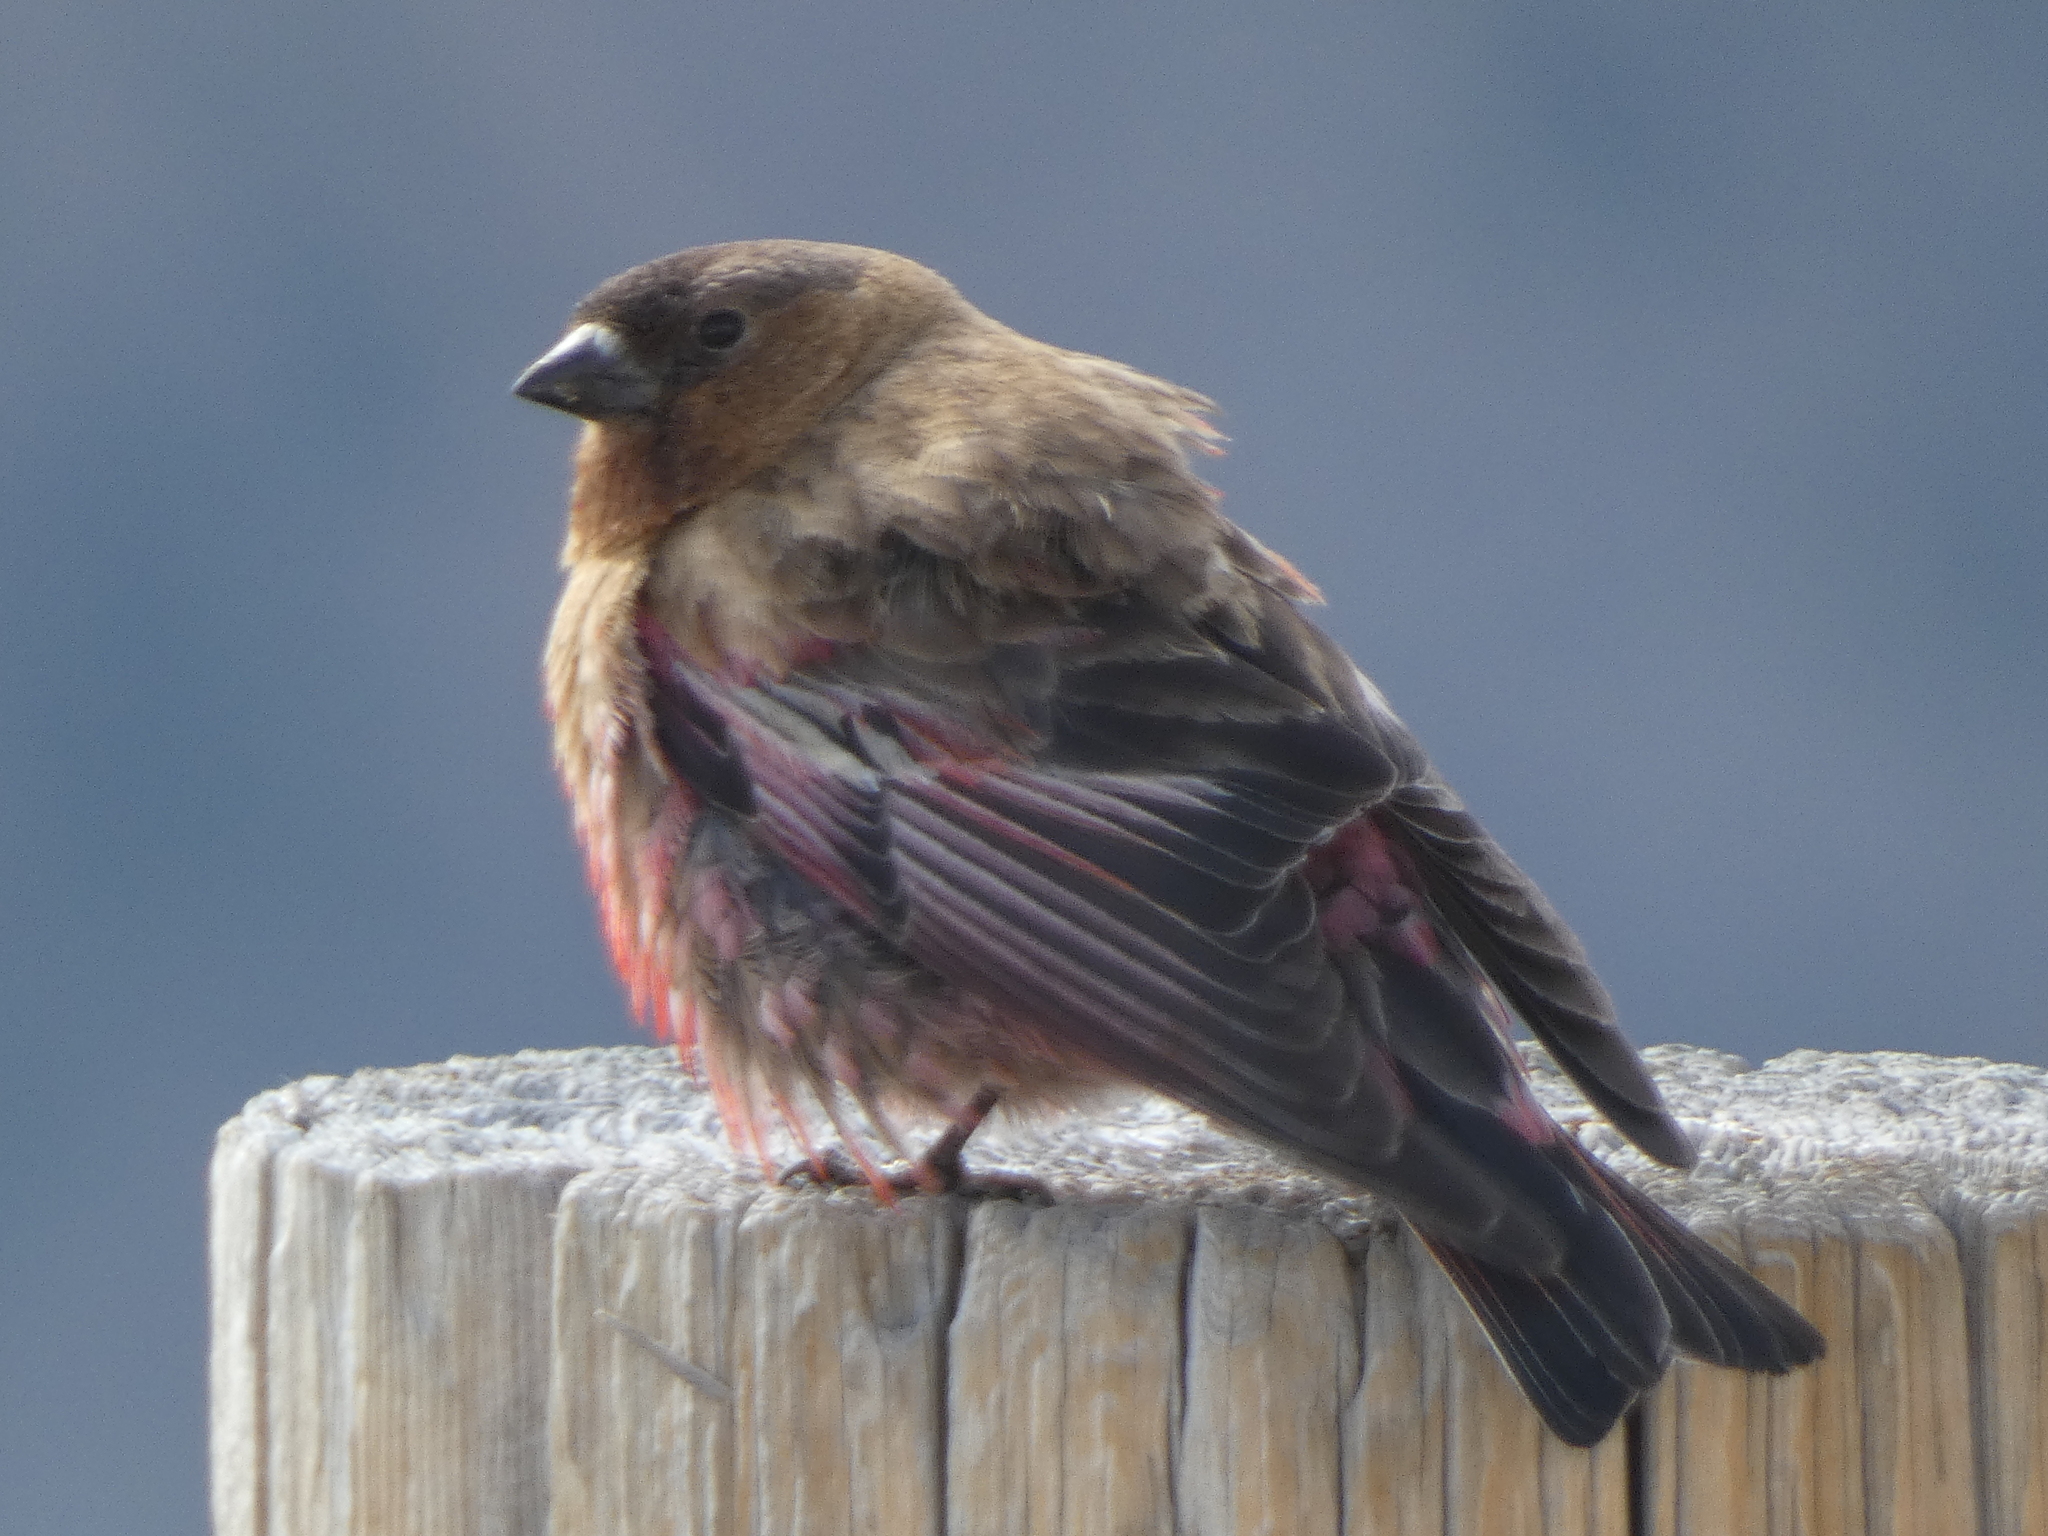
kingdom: Animalia
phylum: Chordata
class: Aves
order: Passeriformes
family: Fringillidae
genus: Leucosticte
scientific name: Leucosticte australis
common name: Brown-capped rosy-finch
